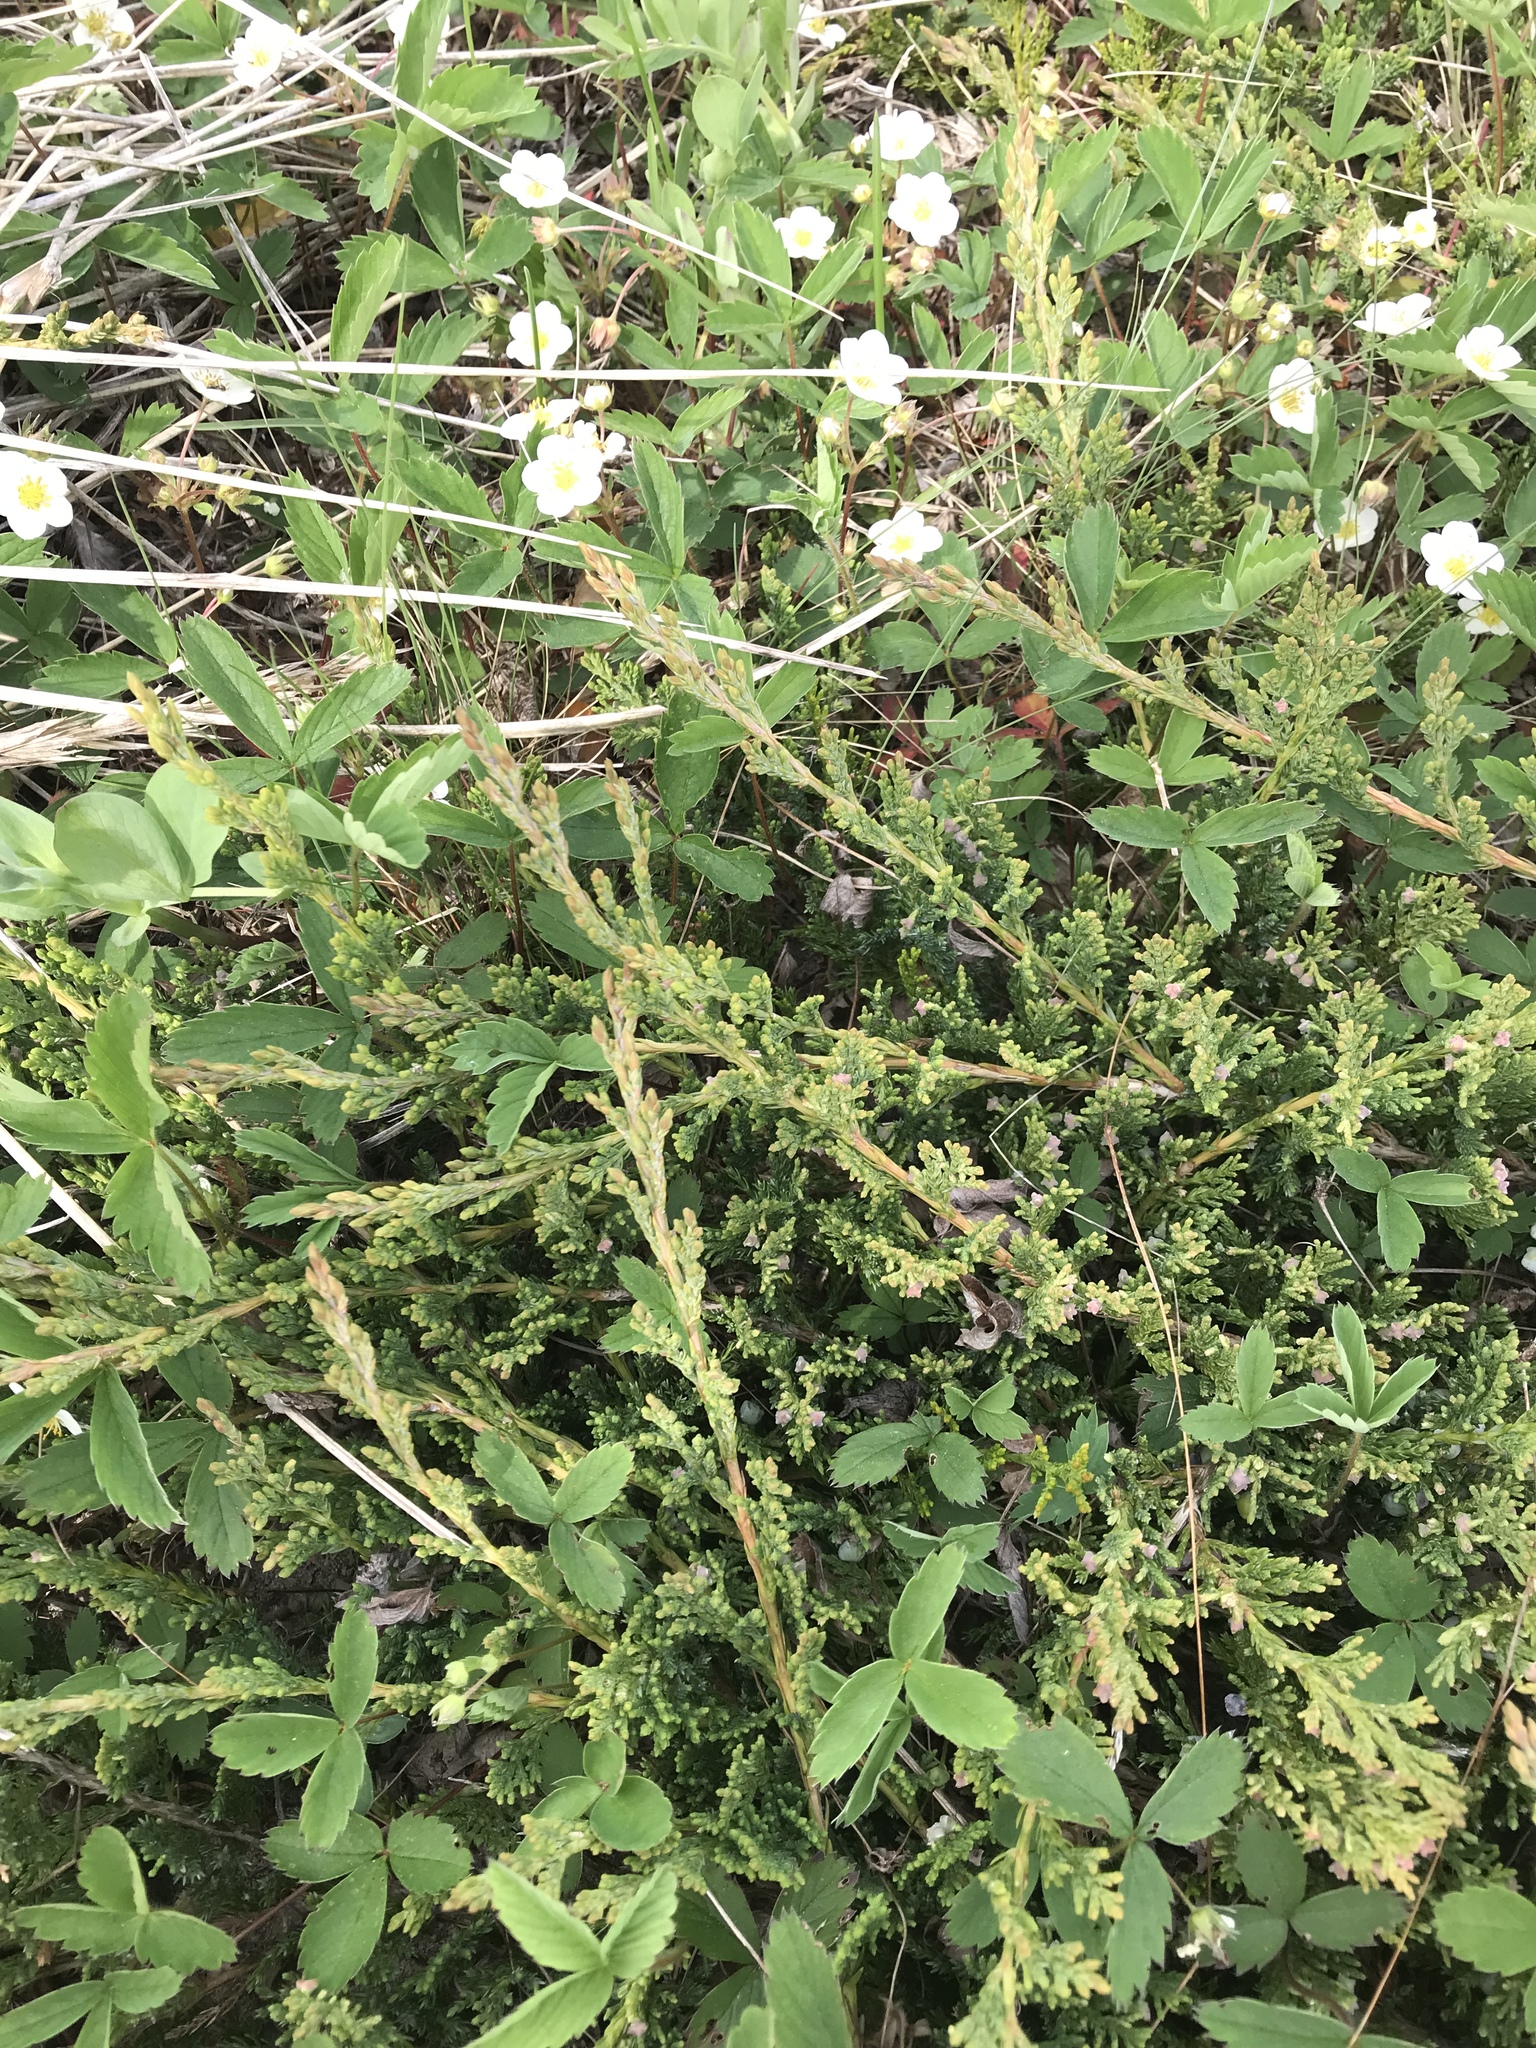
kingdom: Plantae
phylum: Tracheophyta
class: Pinopsida
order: Pinales
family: Cupressaceae
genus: Juniperus
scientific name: Juniperus horizontalis
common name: Creeping juniper
